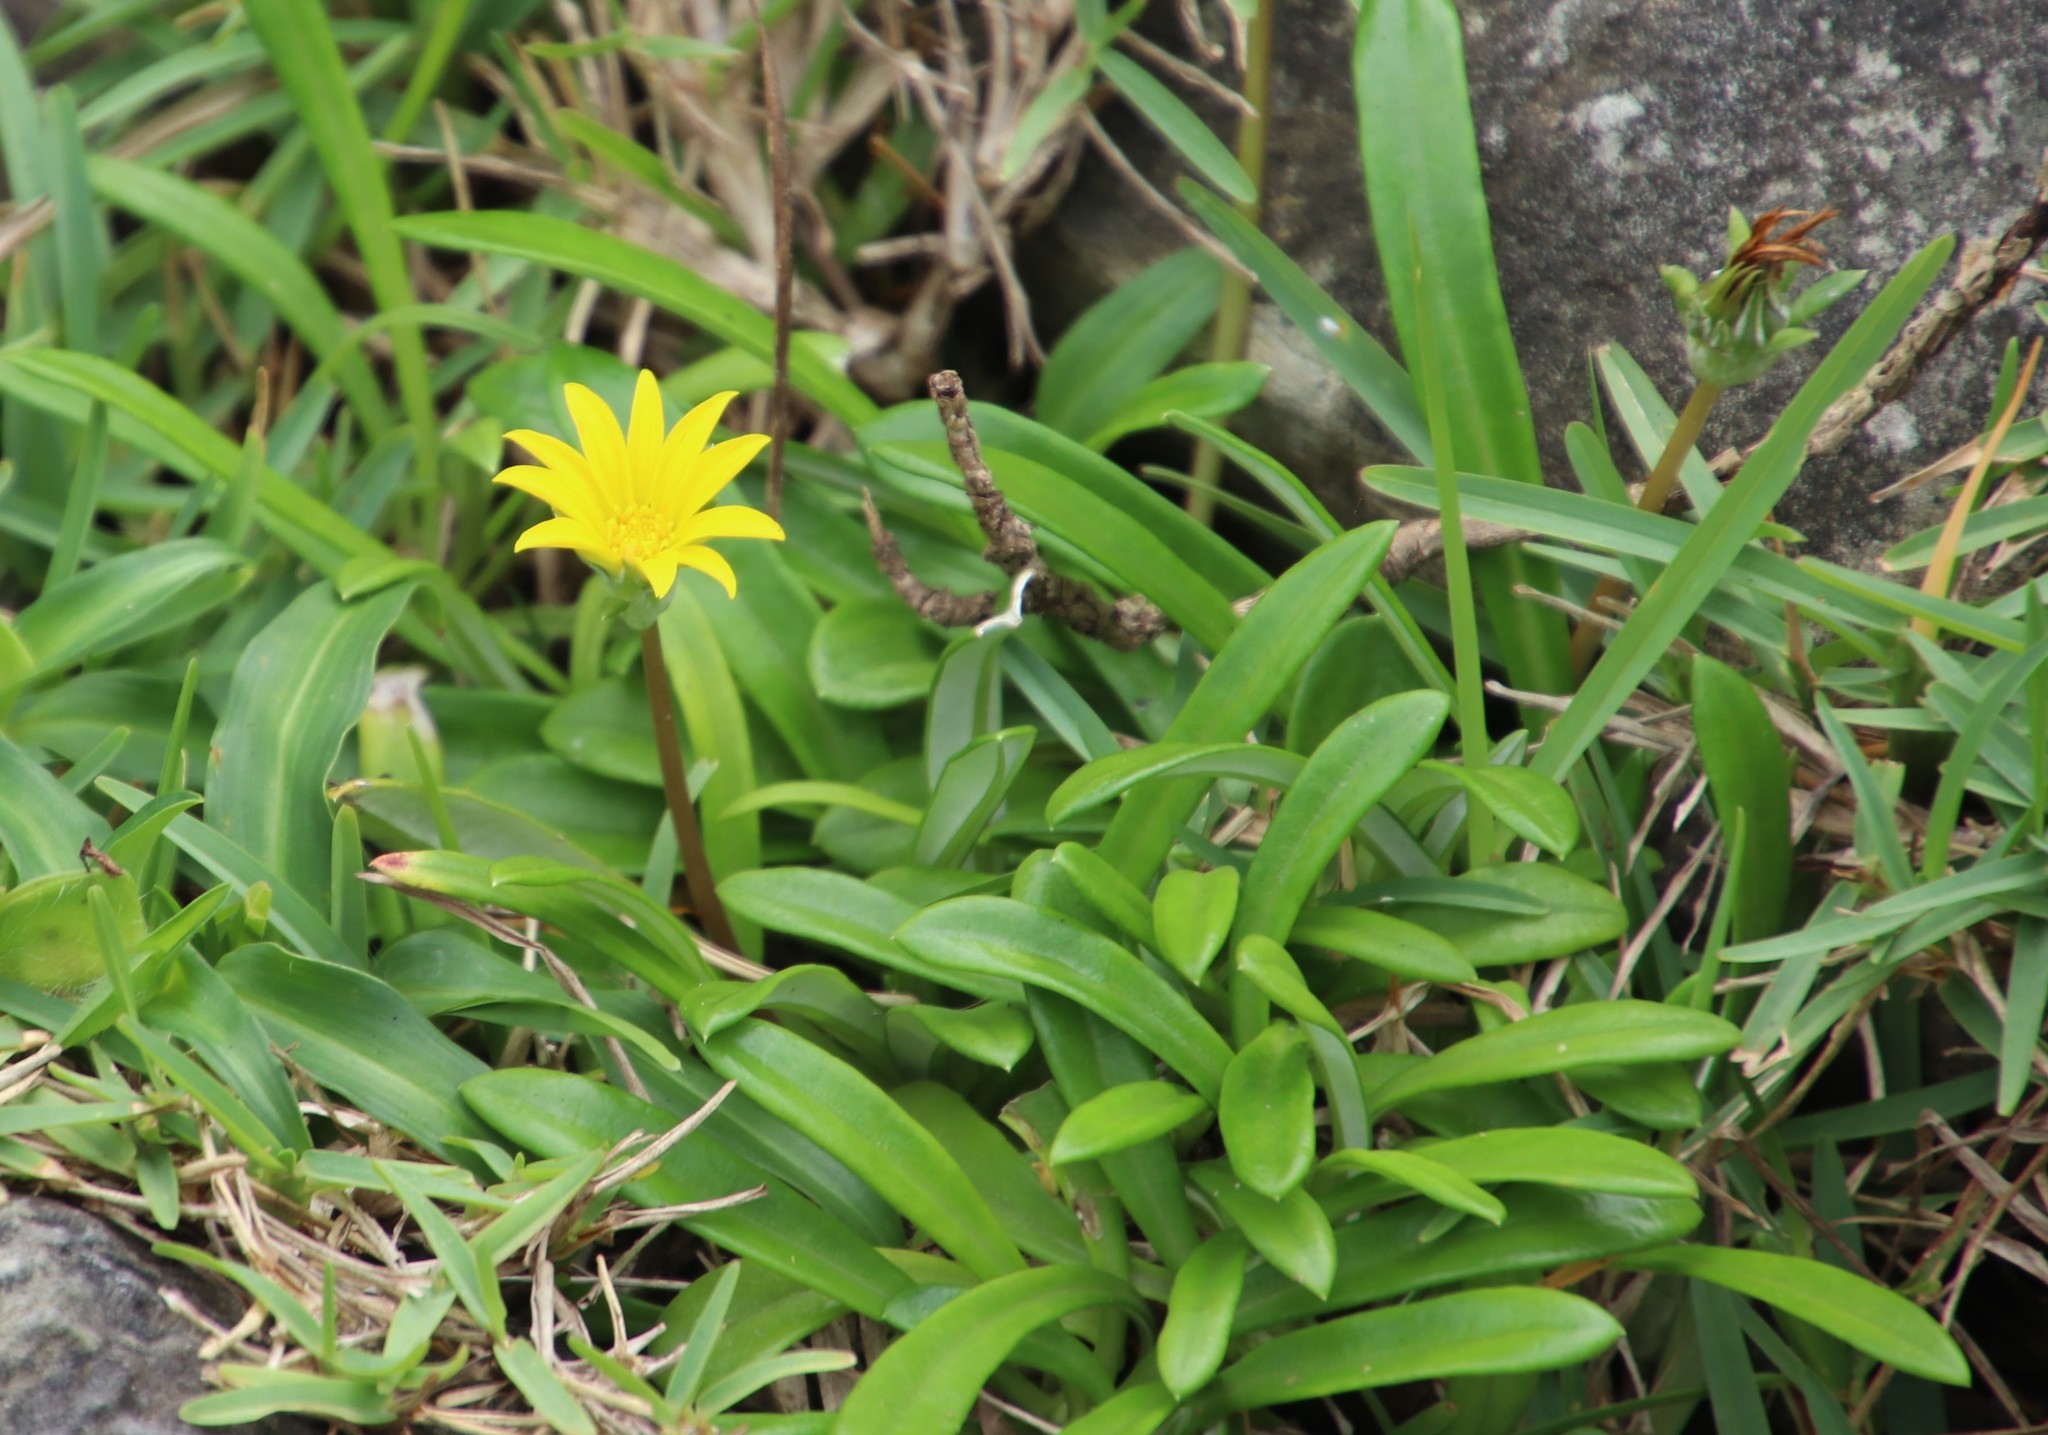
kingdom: Plantae
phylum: Tracheophyta
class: Magnoliopsida
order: Asterales
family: Asteraceae
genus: Gazania
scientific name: Gazania rigens
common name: Treasureflower
